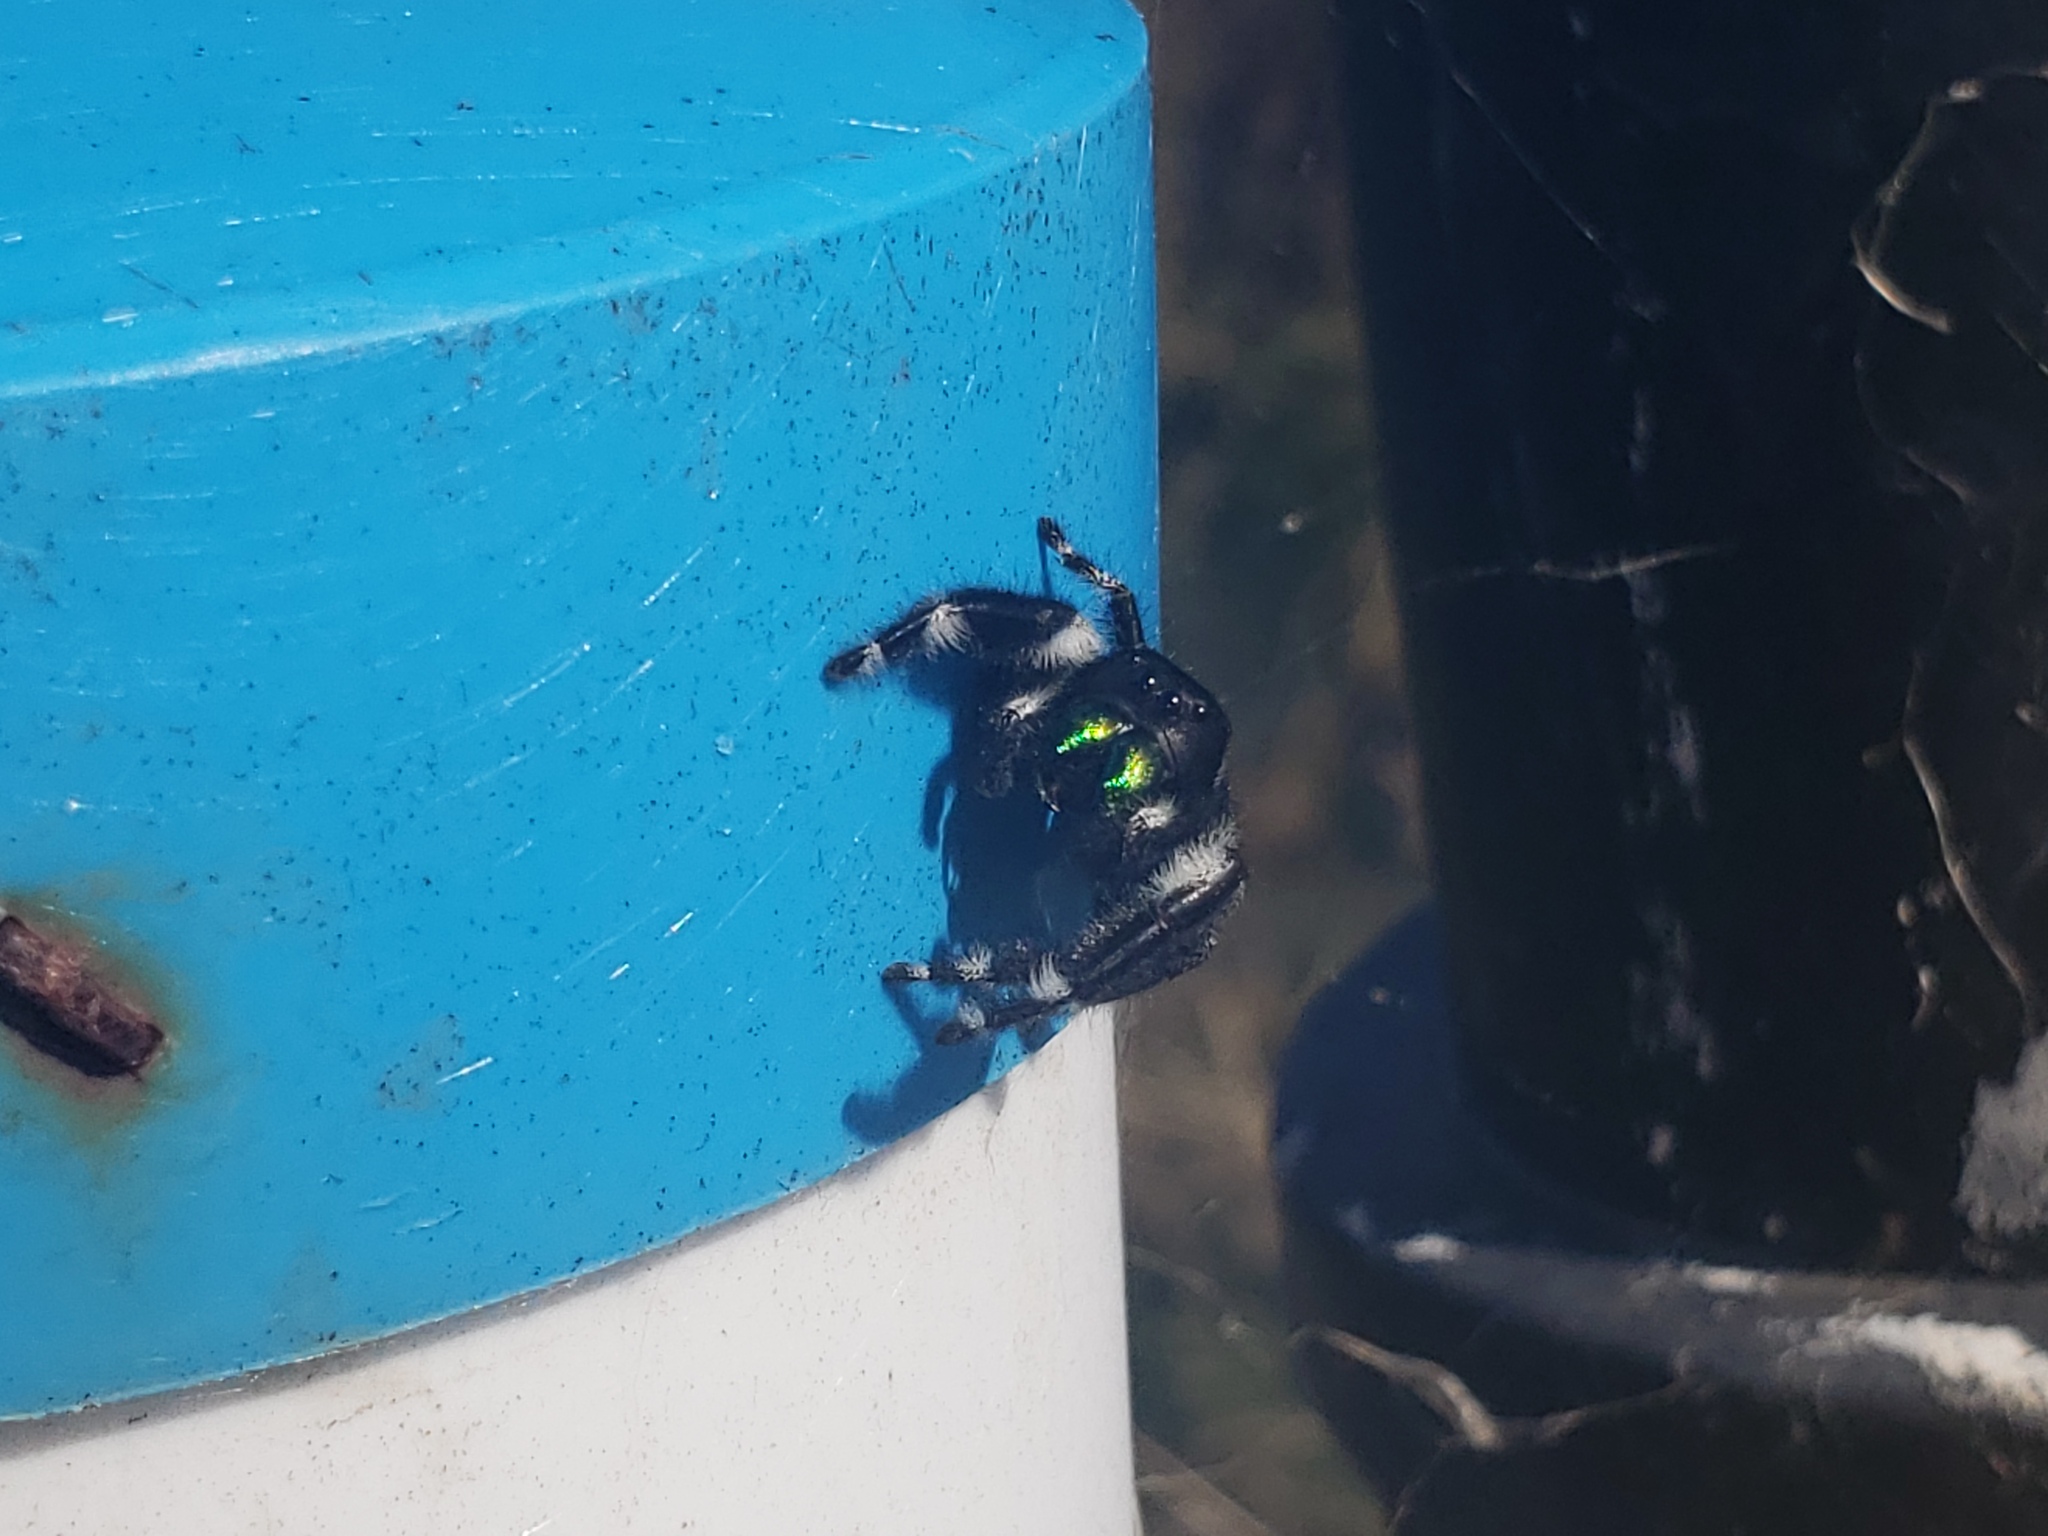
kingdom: Animalia
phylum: Arthropoda
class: Arachnida
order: Araneae
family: Salticidae
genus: Phidippus
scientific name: Phidippus audax
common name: Bold jumper
